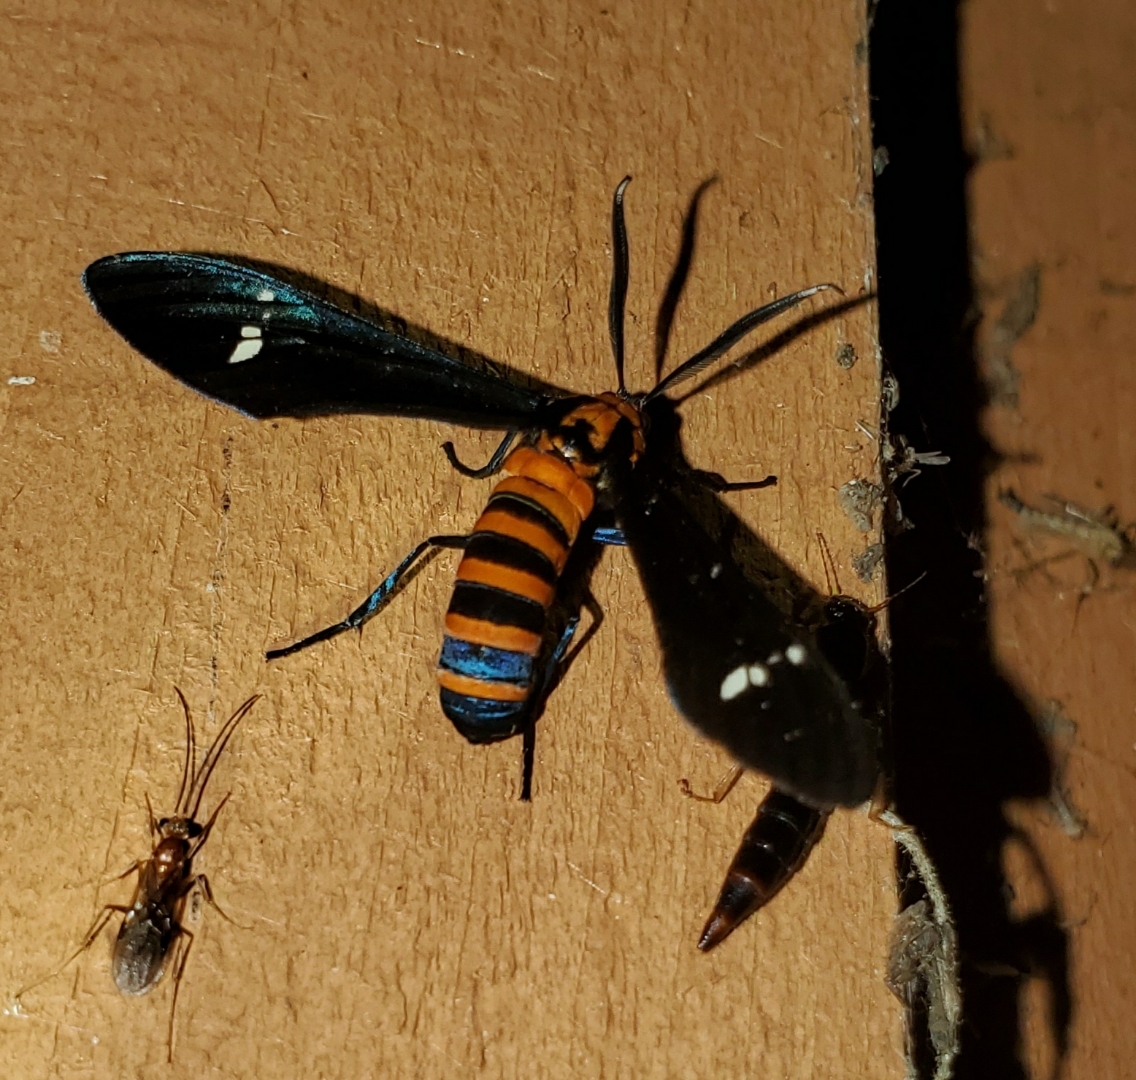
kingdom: Animalia
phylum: Arthropoda
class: Insecta
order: Lepidoptera
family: Erebidae
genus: Syntomeida
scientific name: Syntomeida ipomoeae
